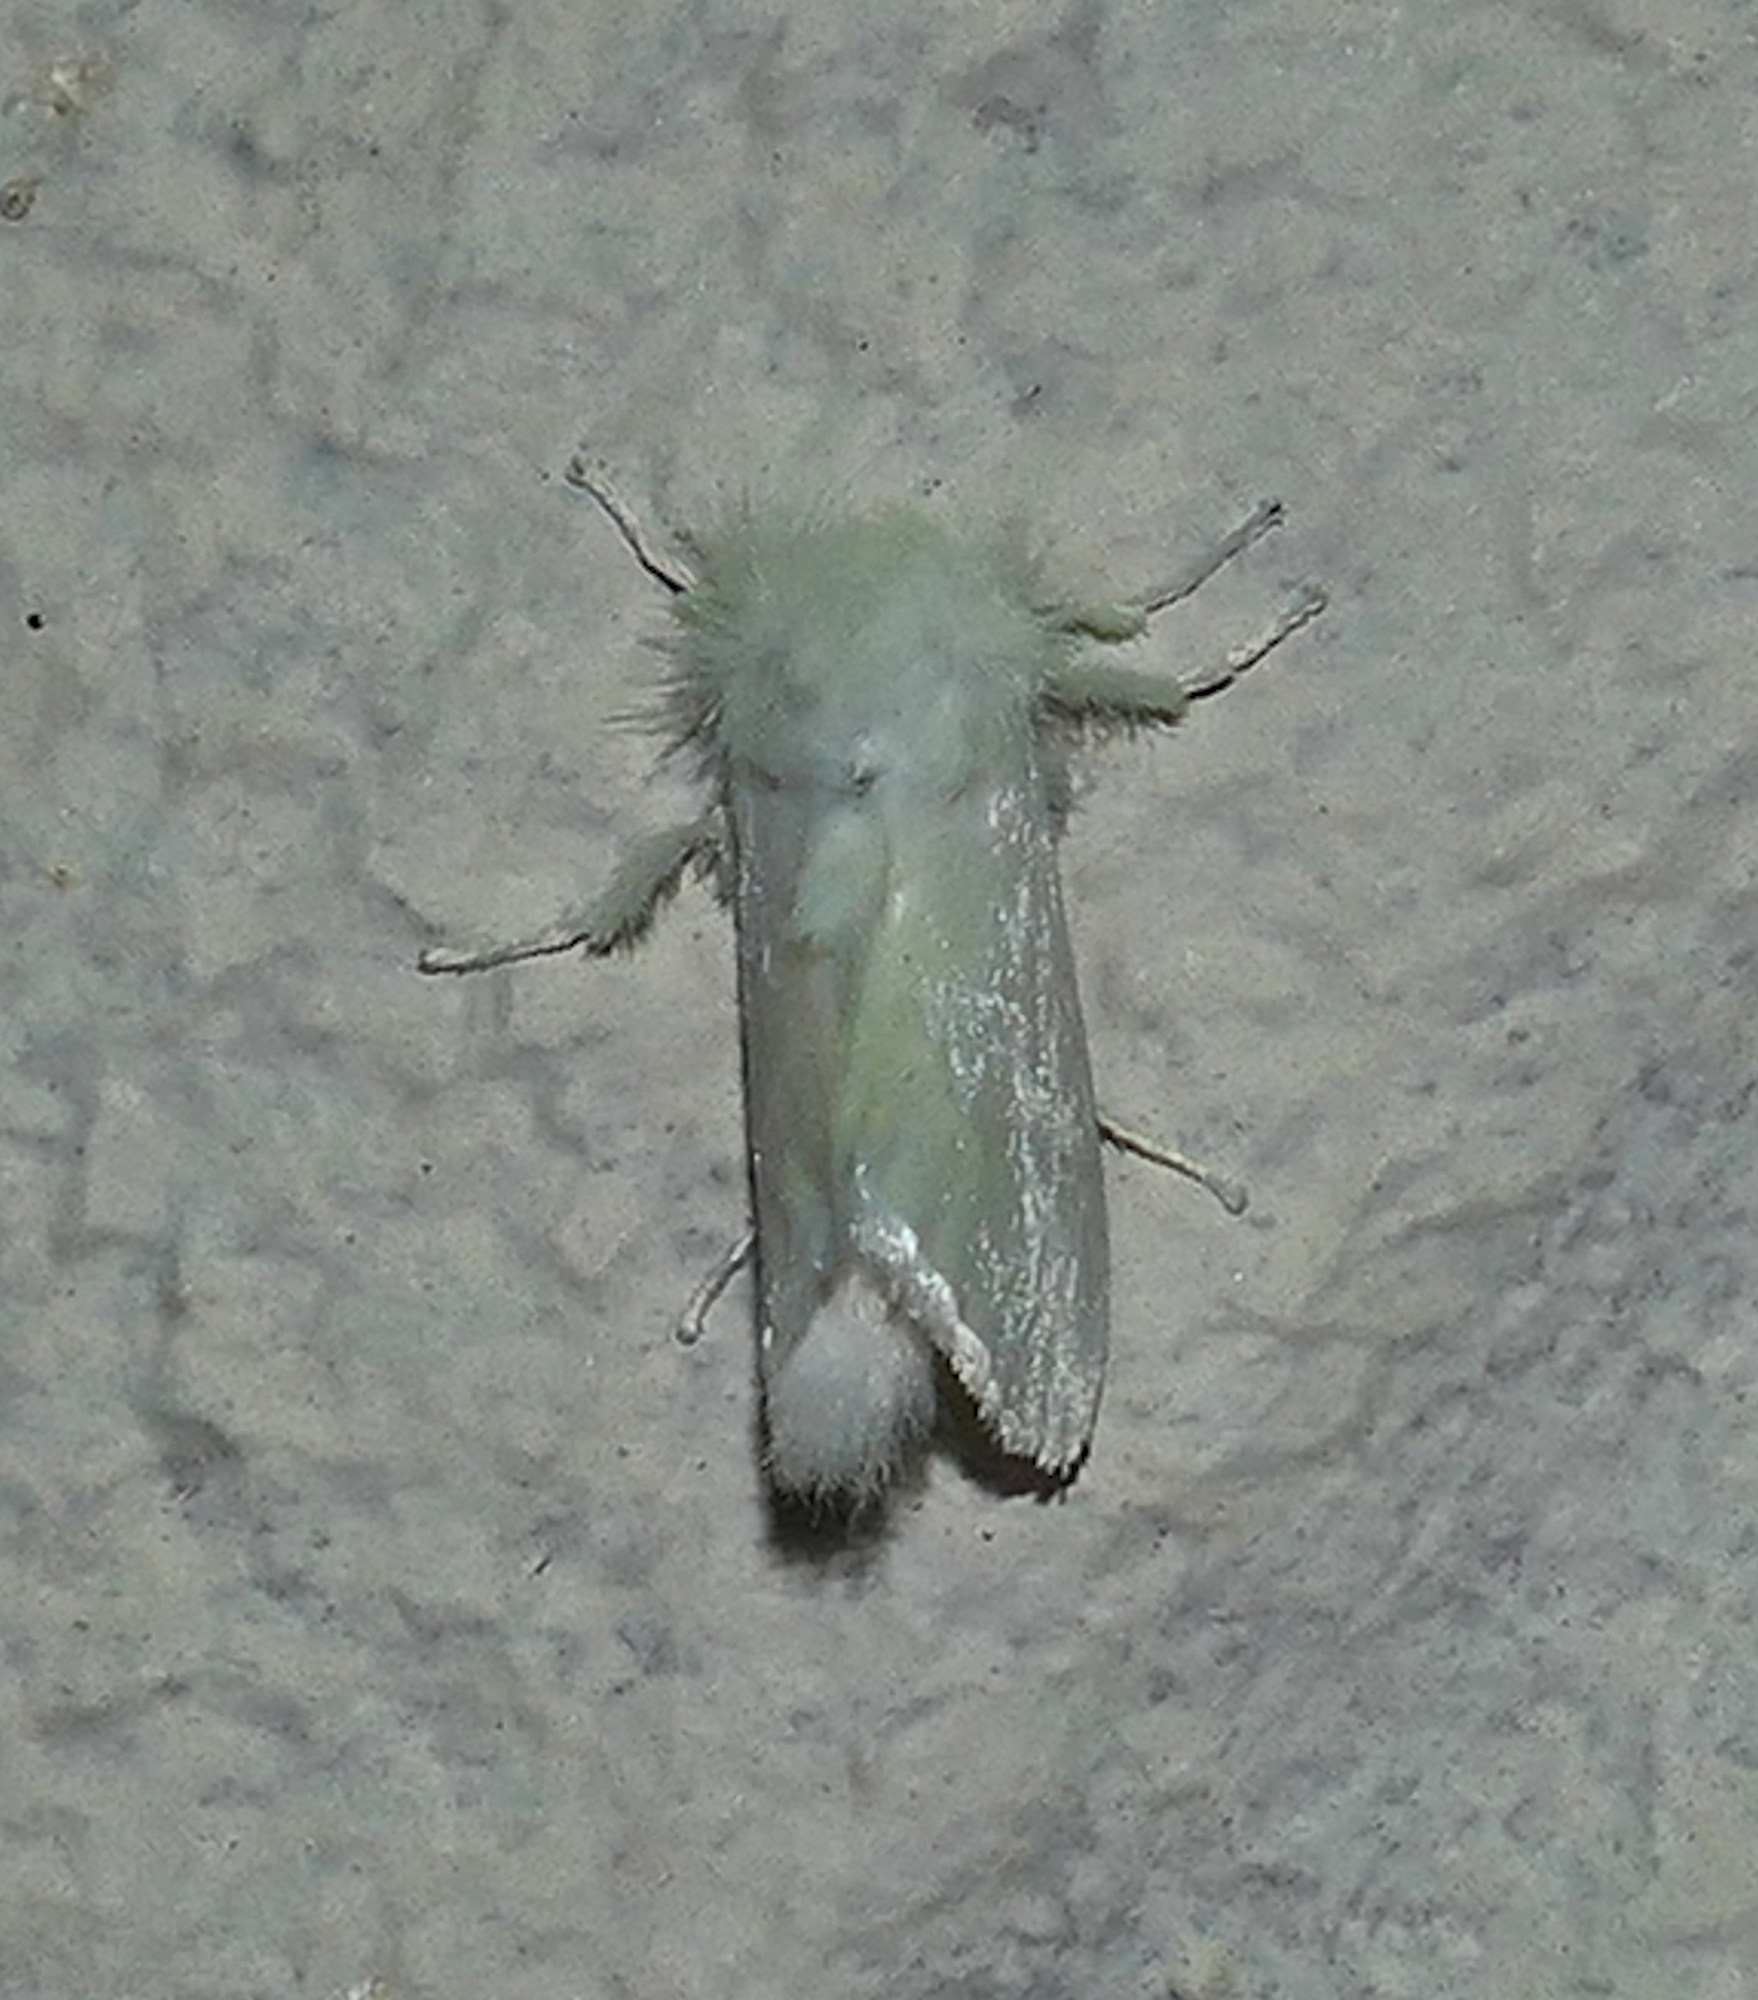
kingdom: Animalia
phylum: Arthropoda
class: Insecta
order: Lepidoptera
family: Megalopygidae
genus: Norape
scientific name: Norape cretata
